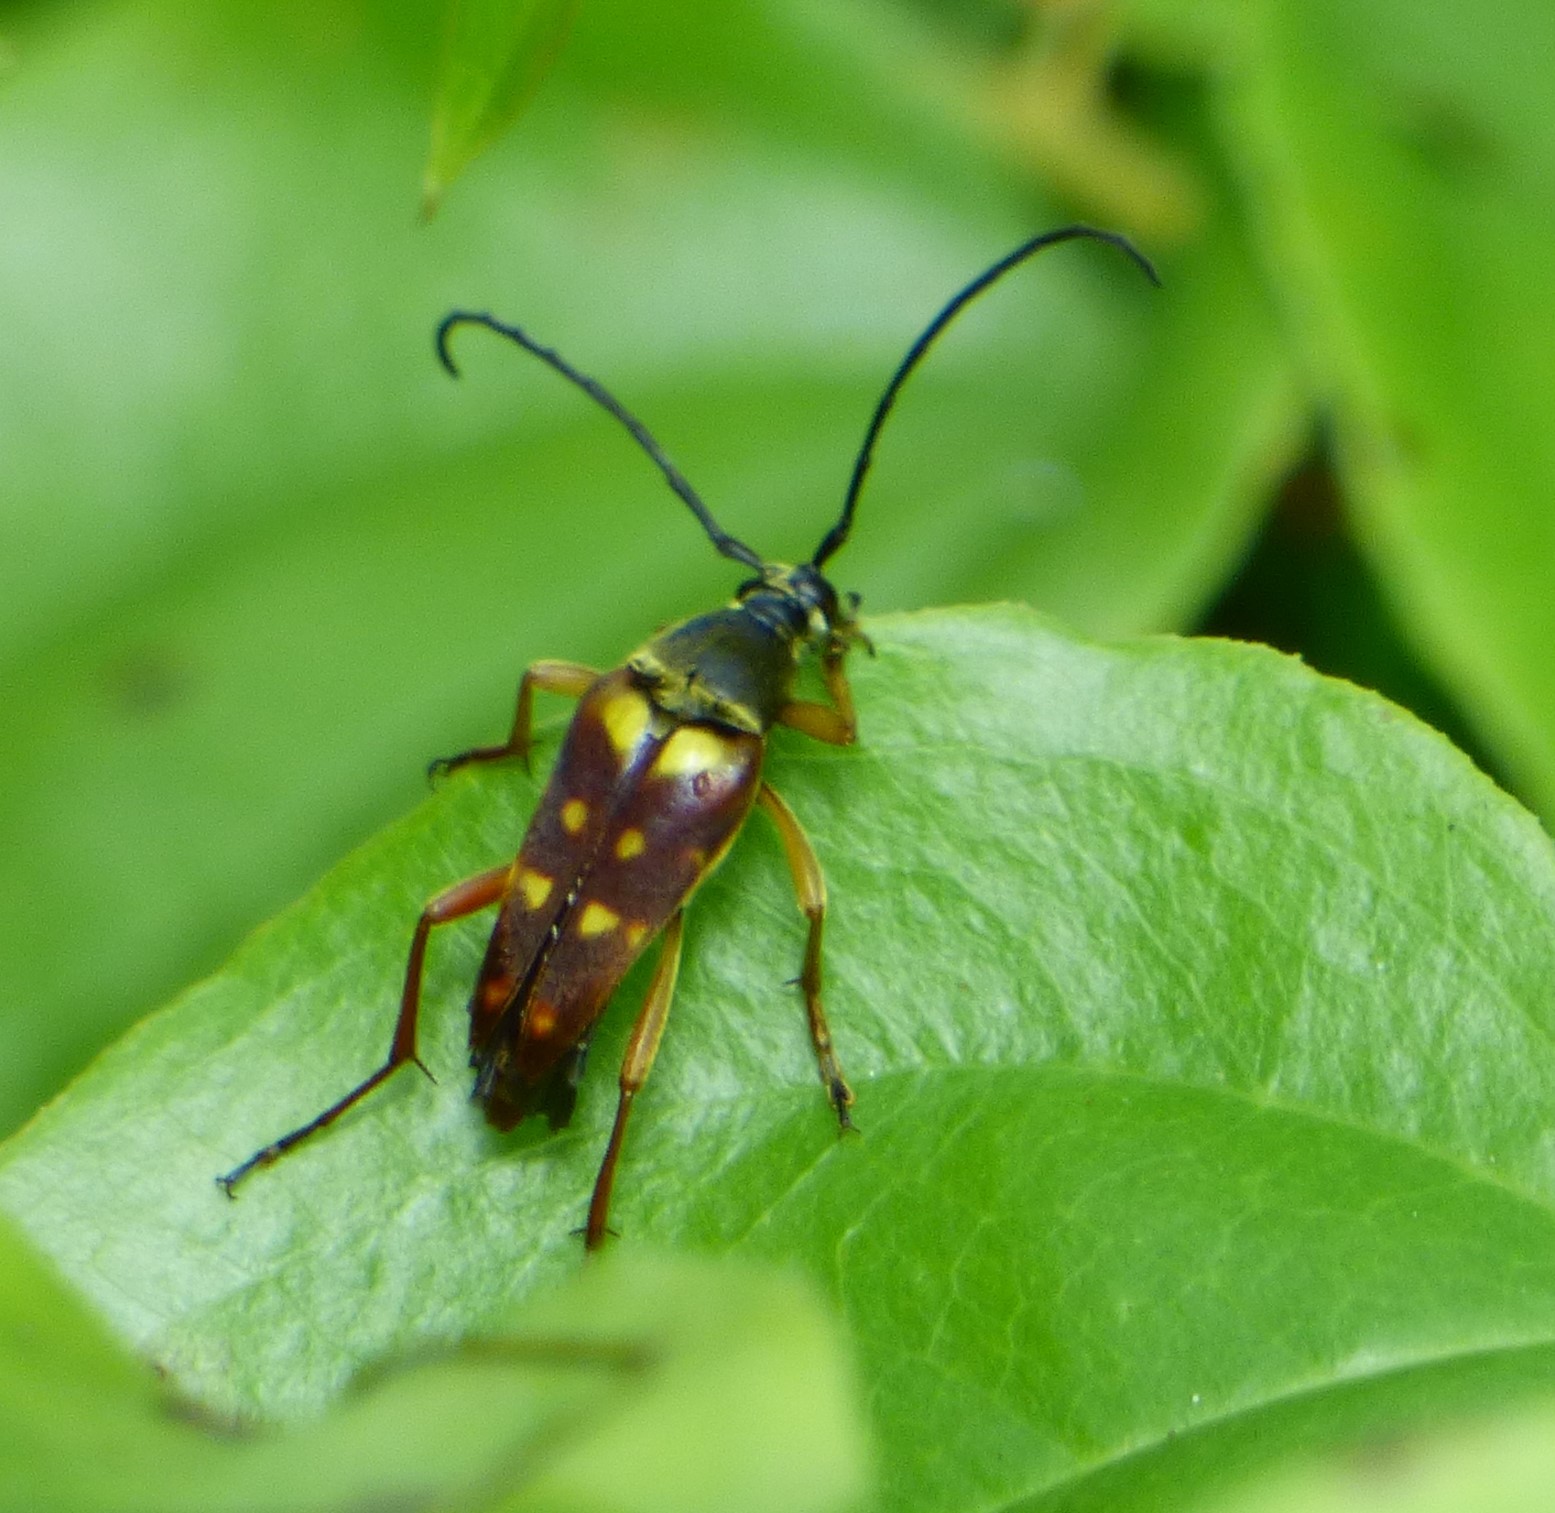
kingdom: Animalia
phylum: Arthropoda
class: Insecta
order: Coleoptera
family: Cerambycidae
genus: Typocerus
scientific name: Typocerus velutinus
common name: Banded longhorn beetle
